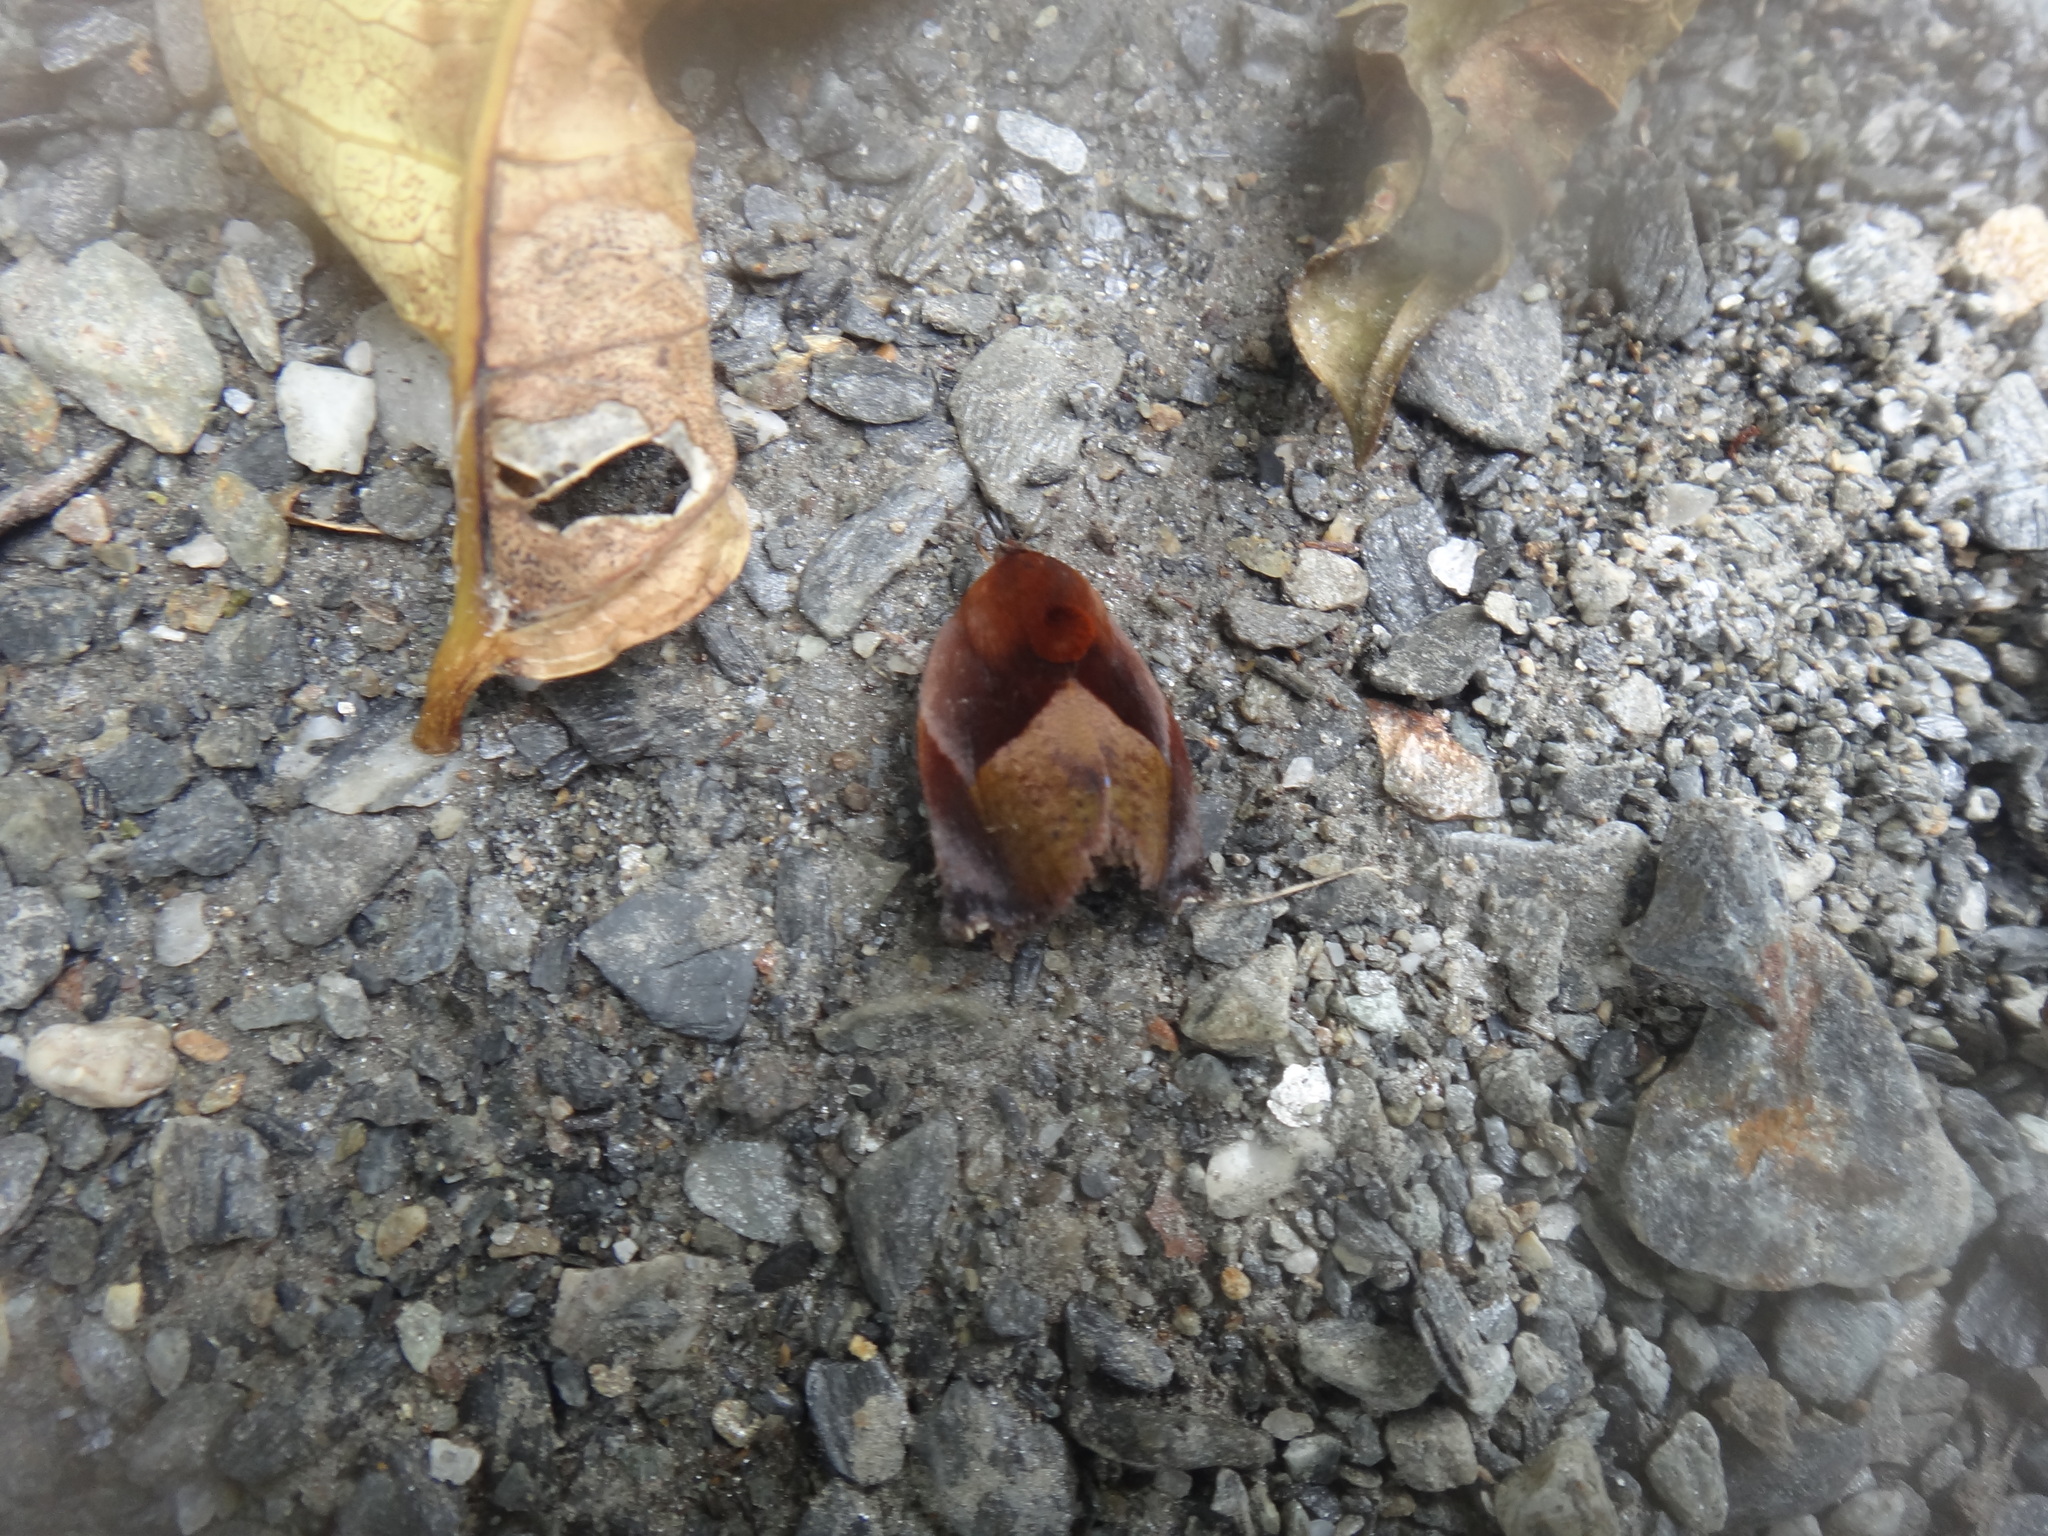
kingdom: Animalia
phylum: Arthropoda
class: Insecta
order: Lepidoptera
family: Hyblaeidae
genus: Hyblaea
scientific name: Hyblaea firmamentum
